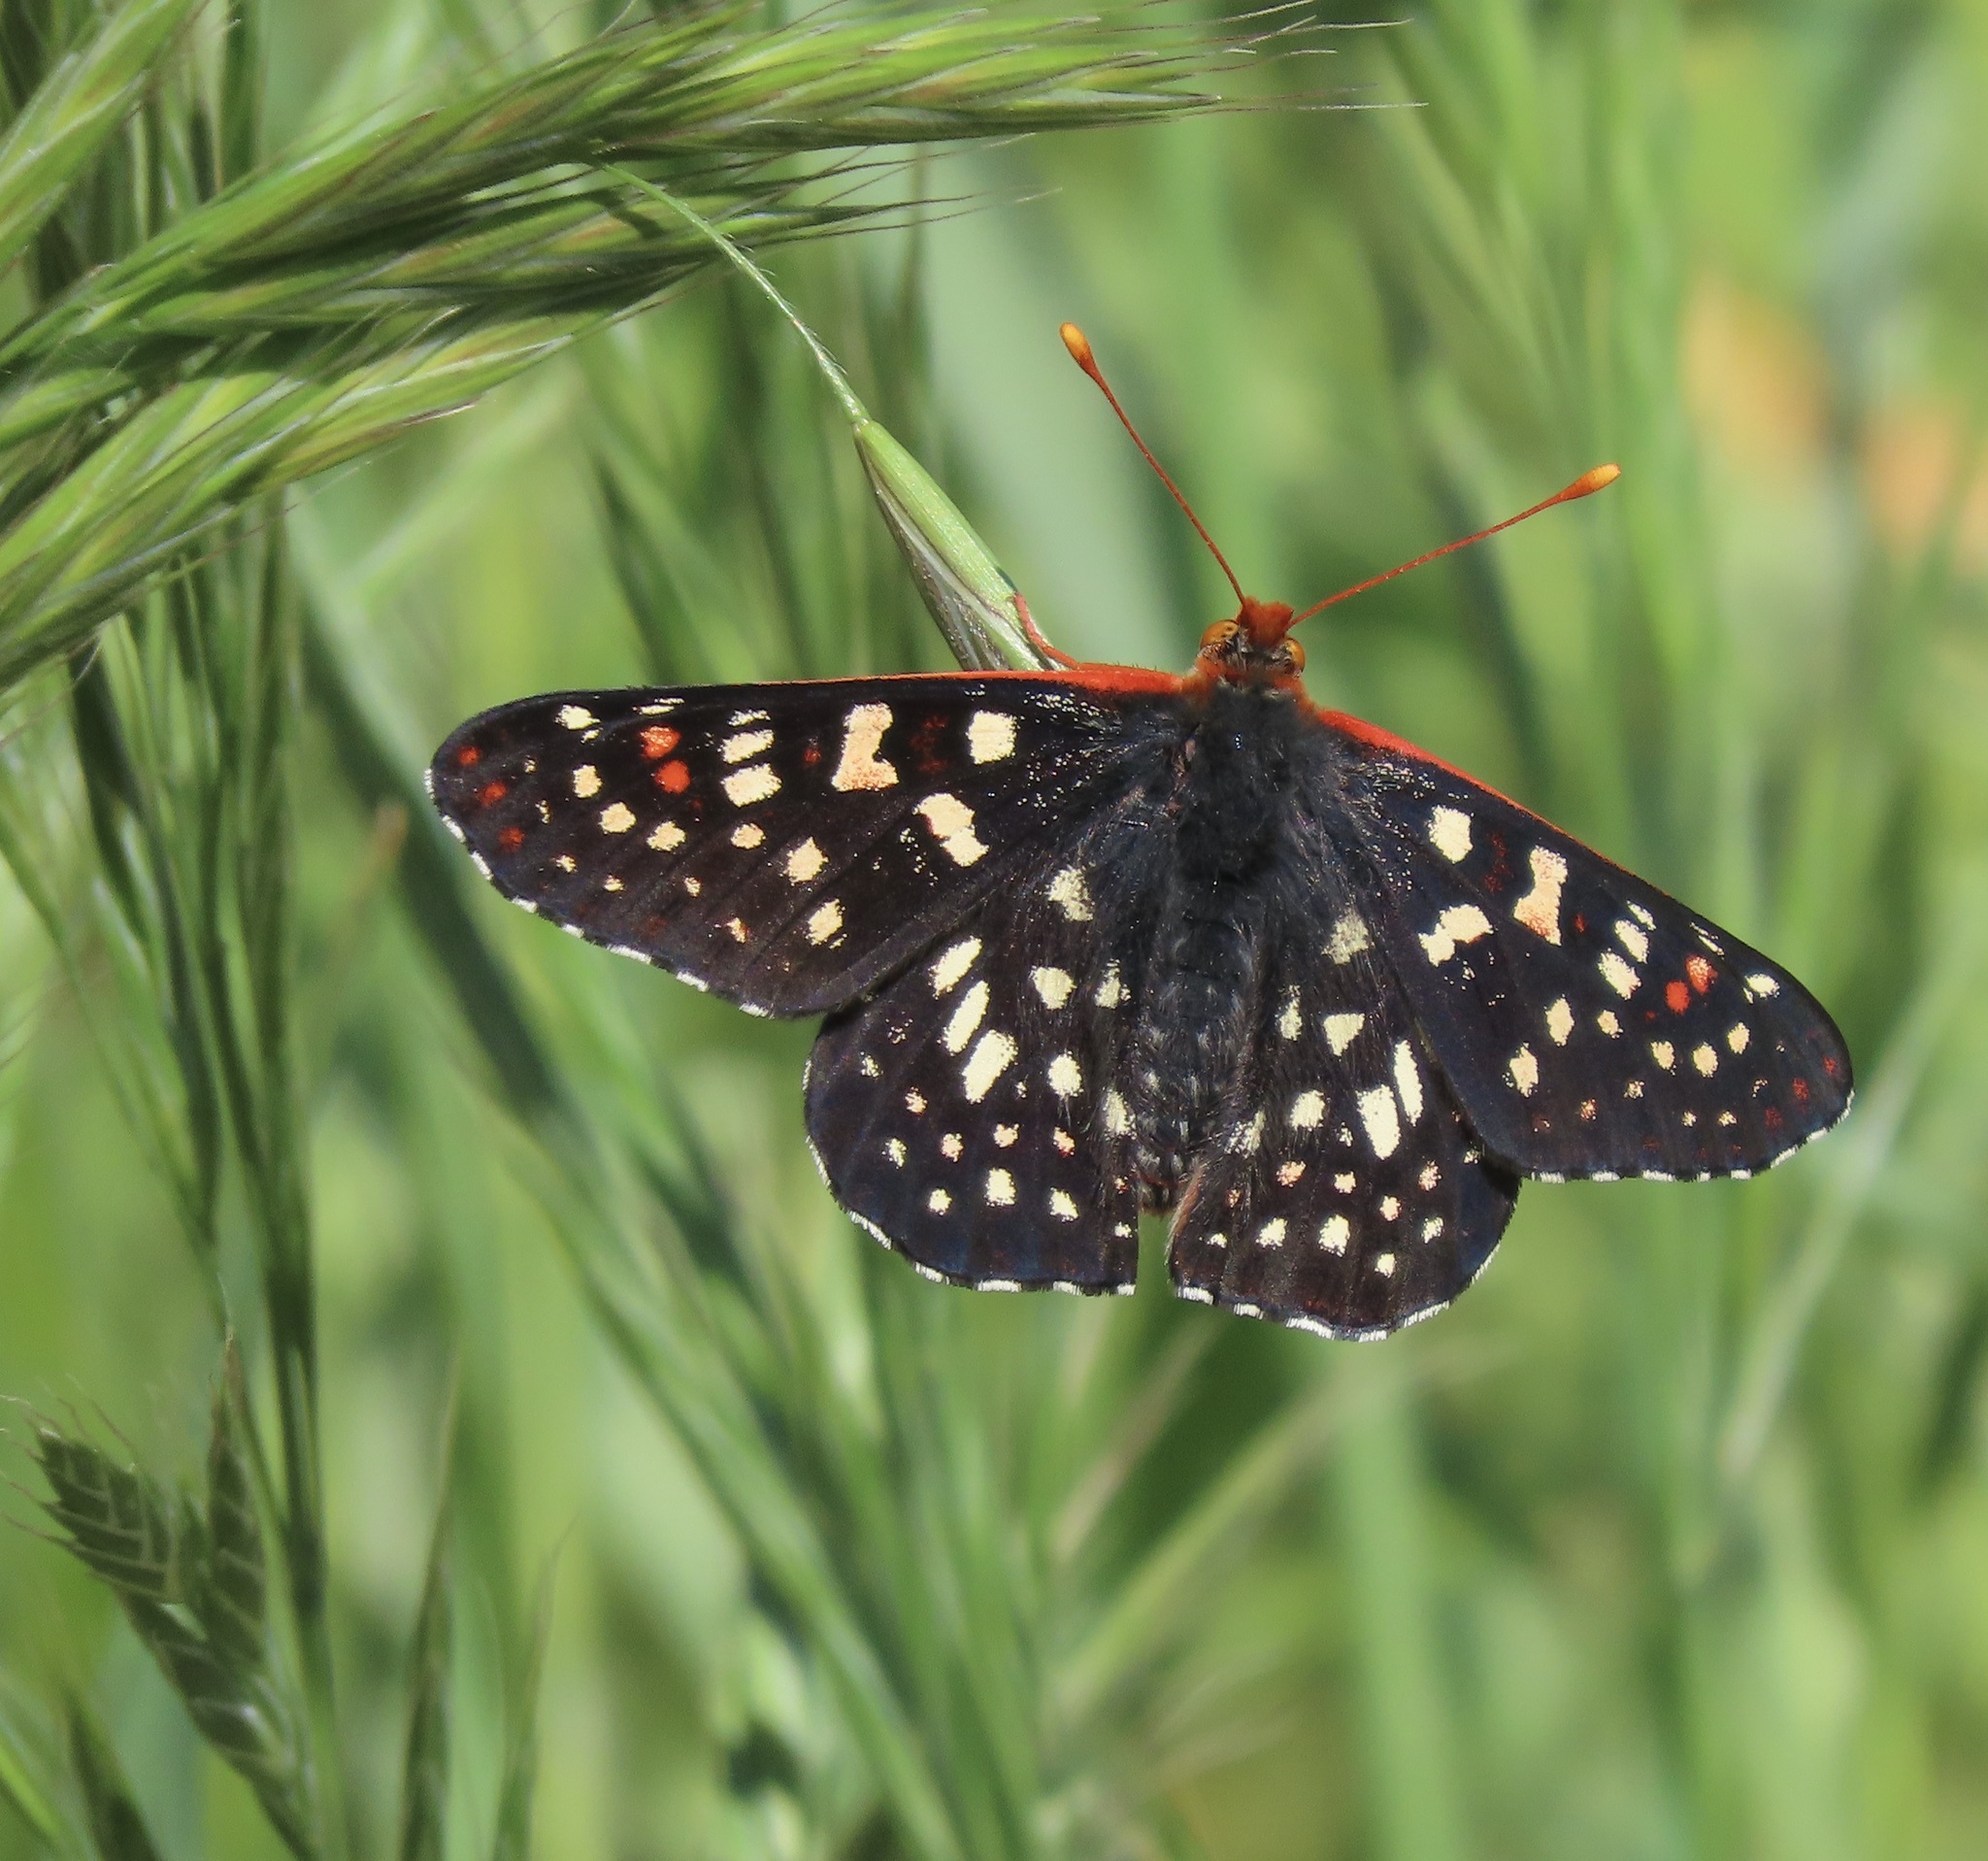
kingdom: Animalia
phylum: Arthropoda
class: Insecta
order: Lepidoptera
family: Nymphalidae
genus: Occidryas
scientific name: Occidryas chalcedona
